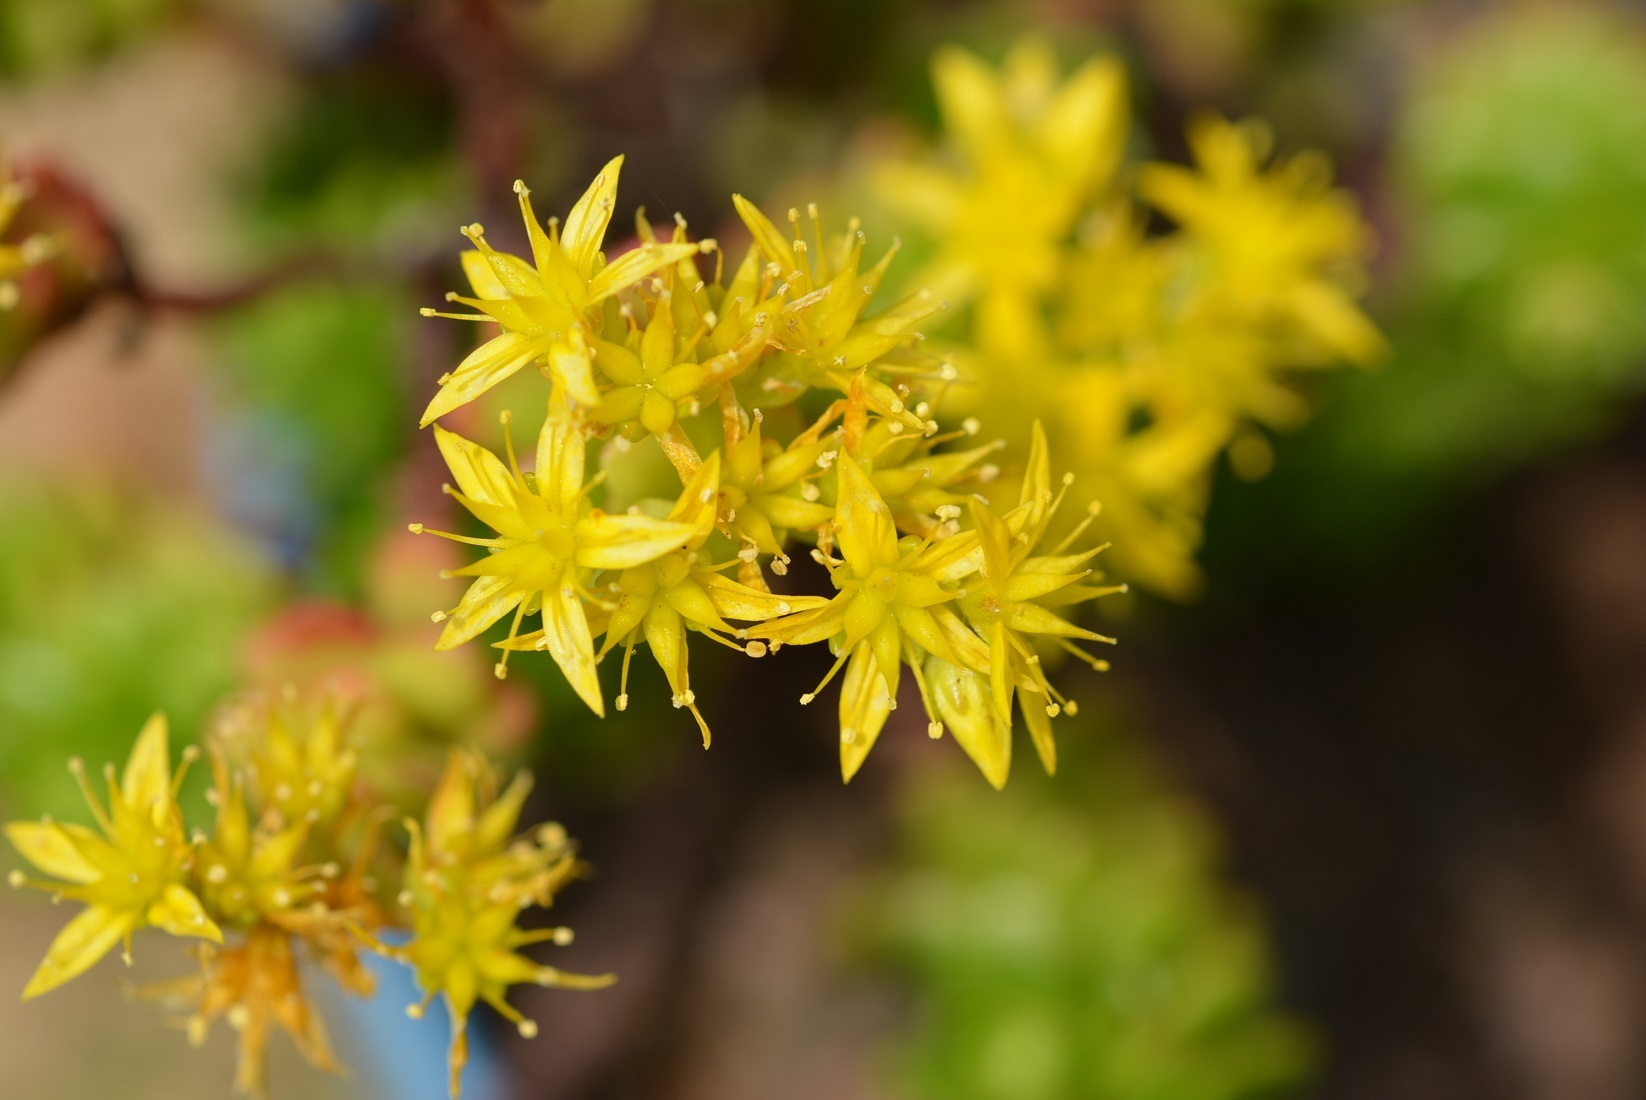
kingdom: Plantae
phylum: Tracheophyta
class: Magnoliopsida
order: Saxifragales
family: Crassulaceae
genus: Sedum
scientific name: Sedum mexicanum
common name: Mexican stonecrop
